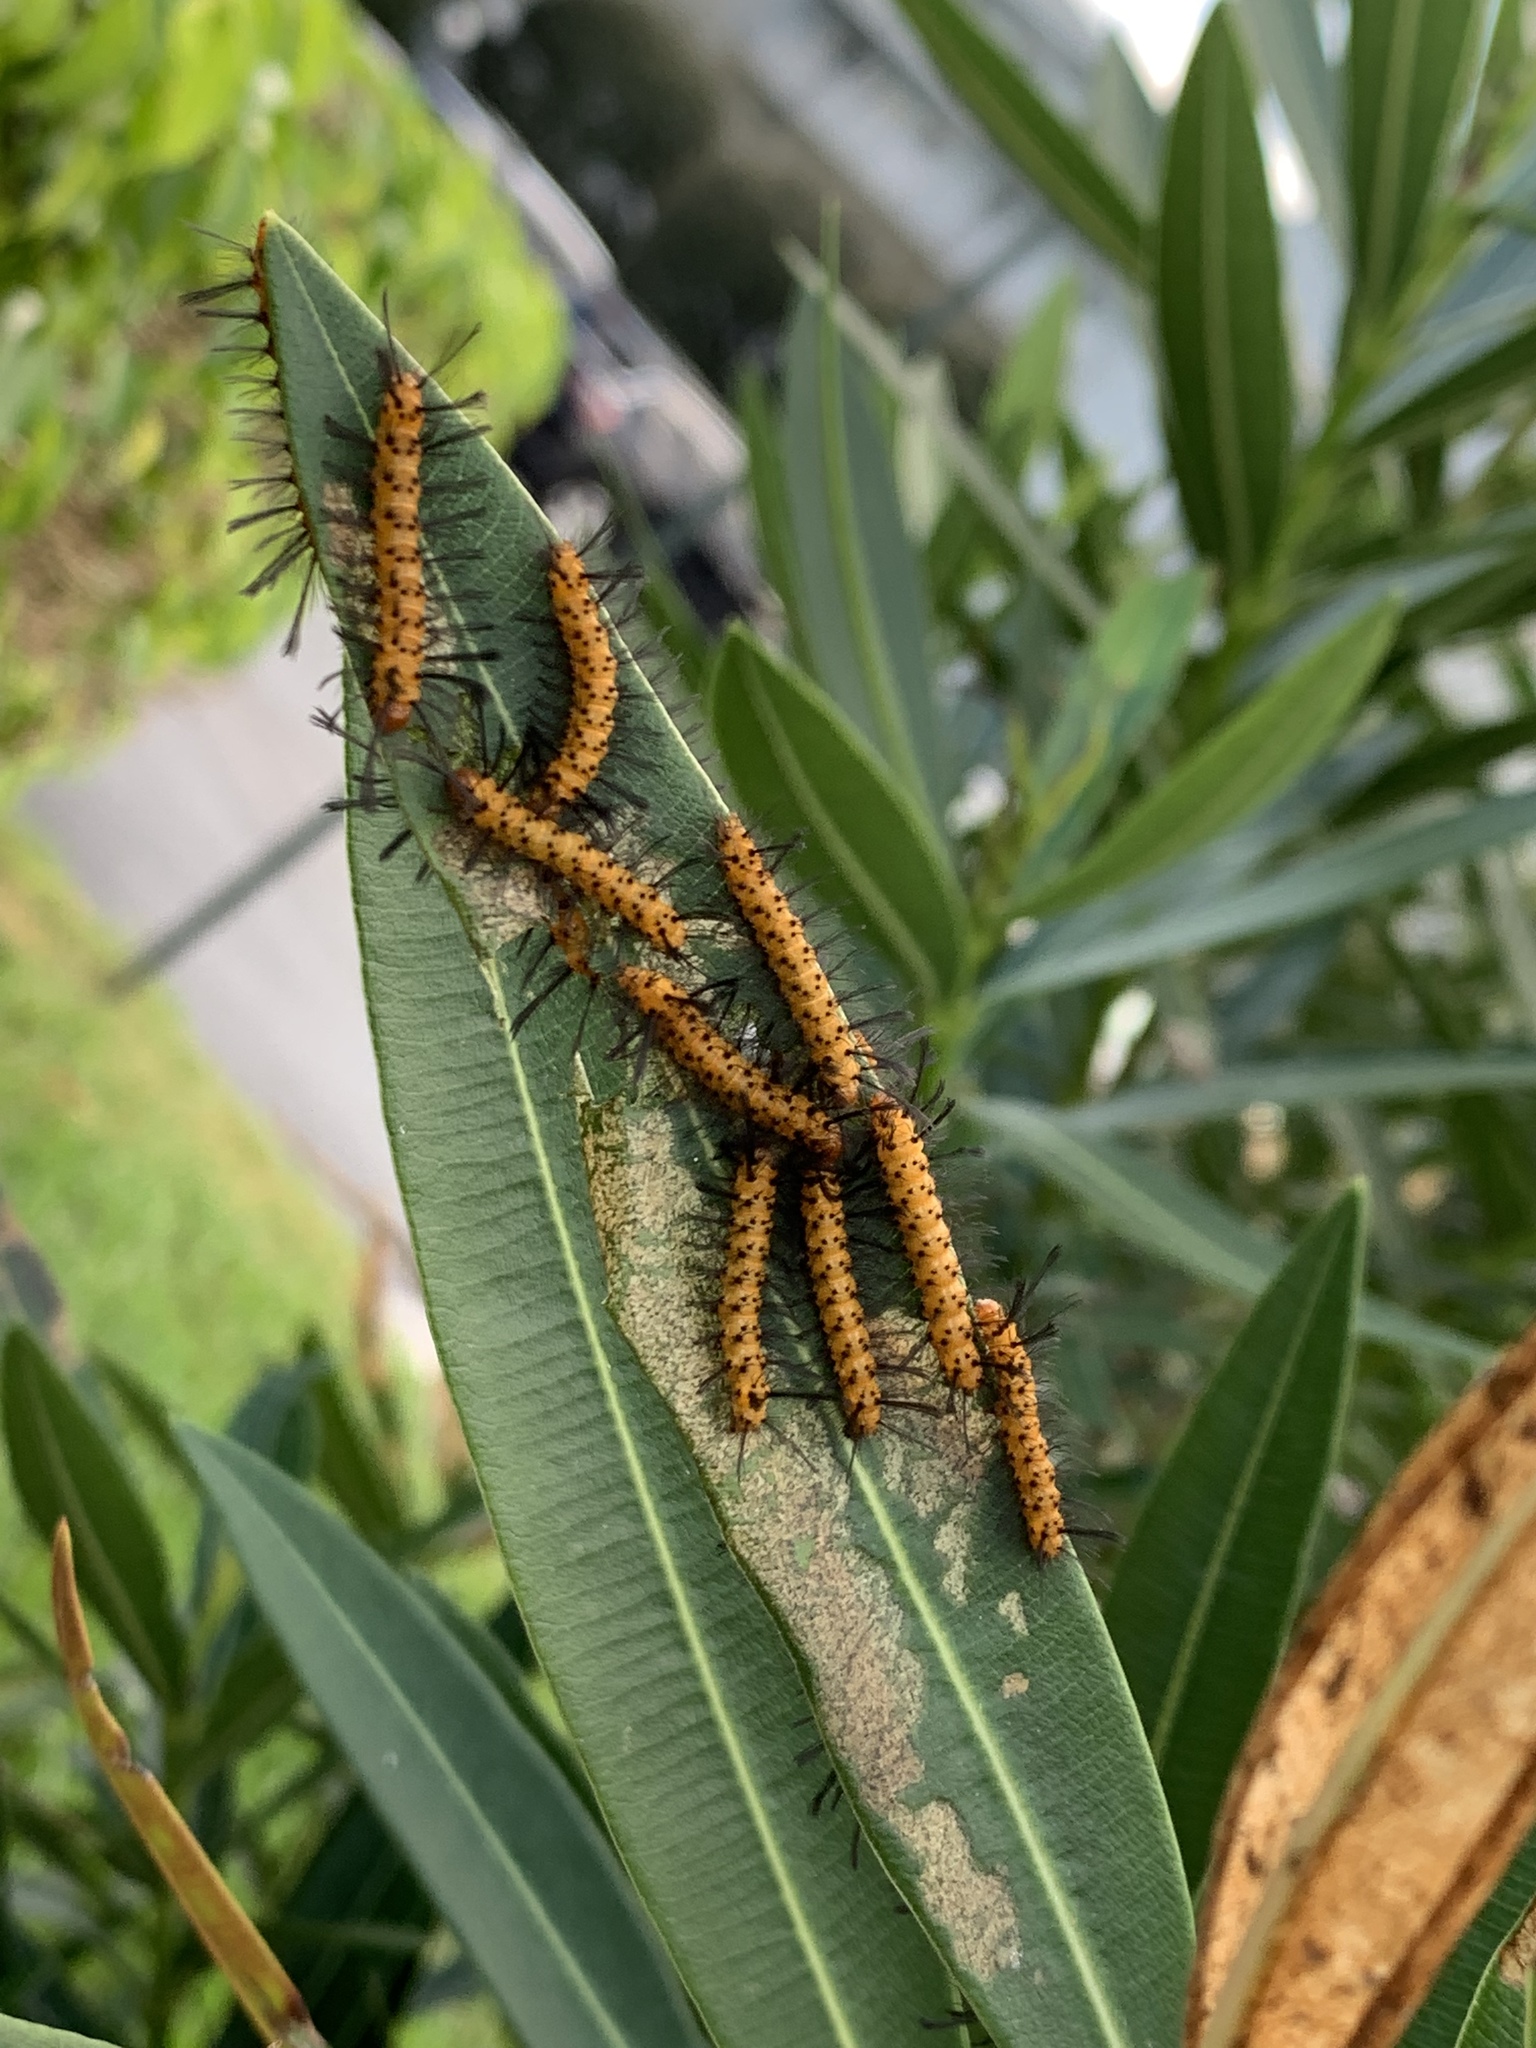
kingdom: Animalia
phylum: Arthropoda
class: Insecta
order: Lepidoptera
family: Erebidae
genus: Syntomeida
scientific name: Syntomeida epilais
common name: Polka-dot wasp moth
